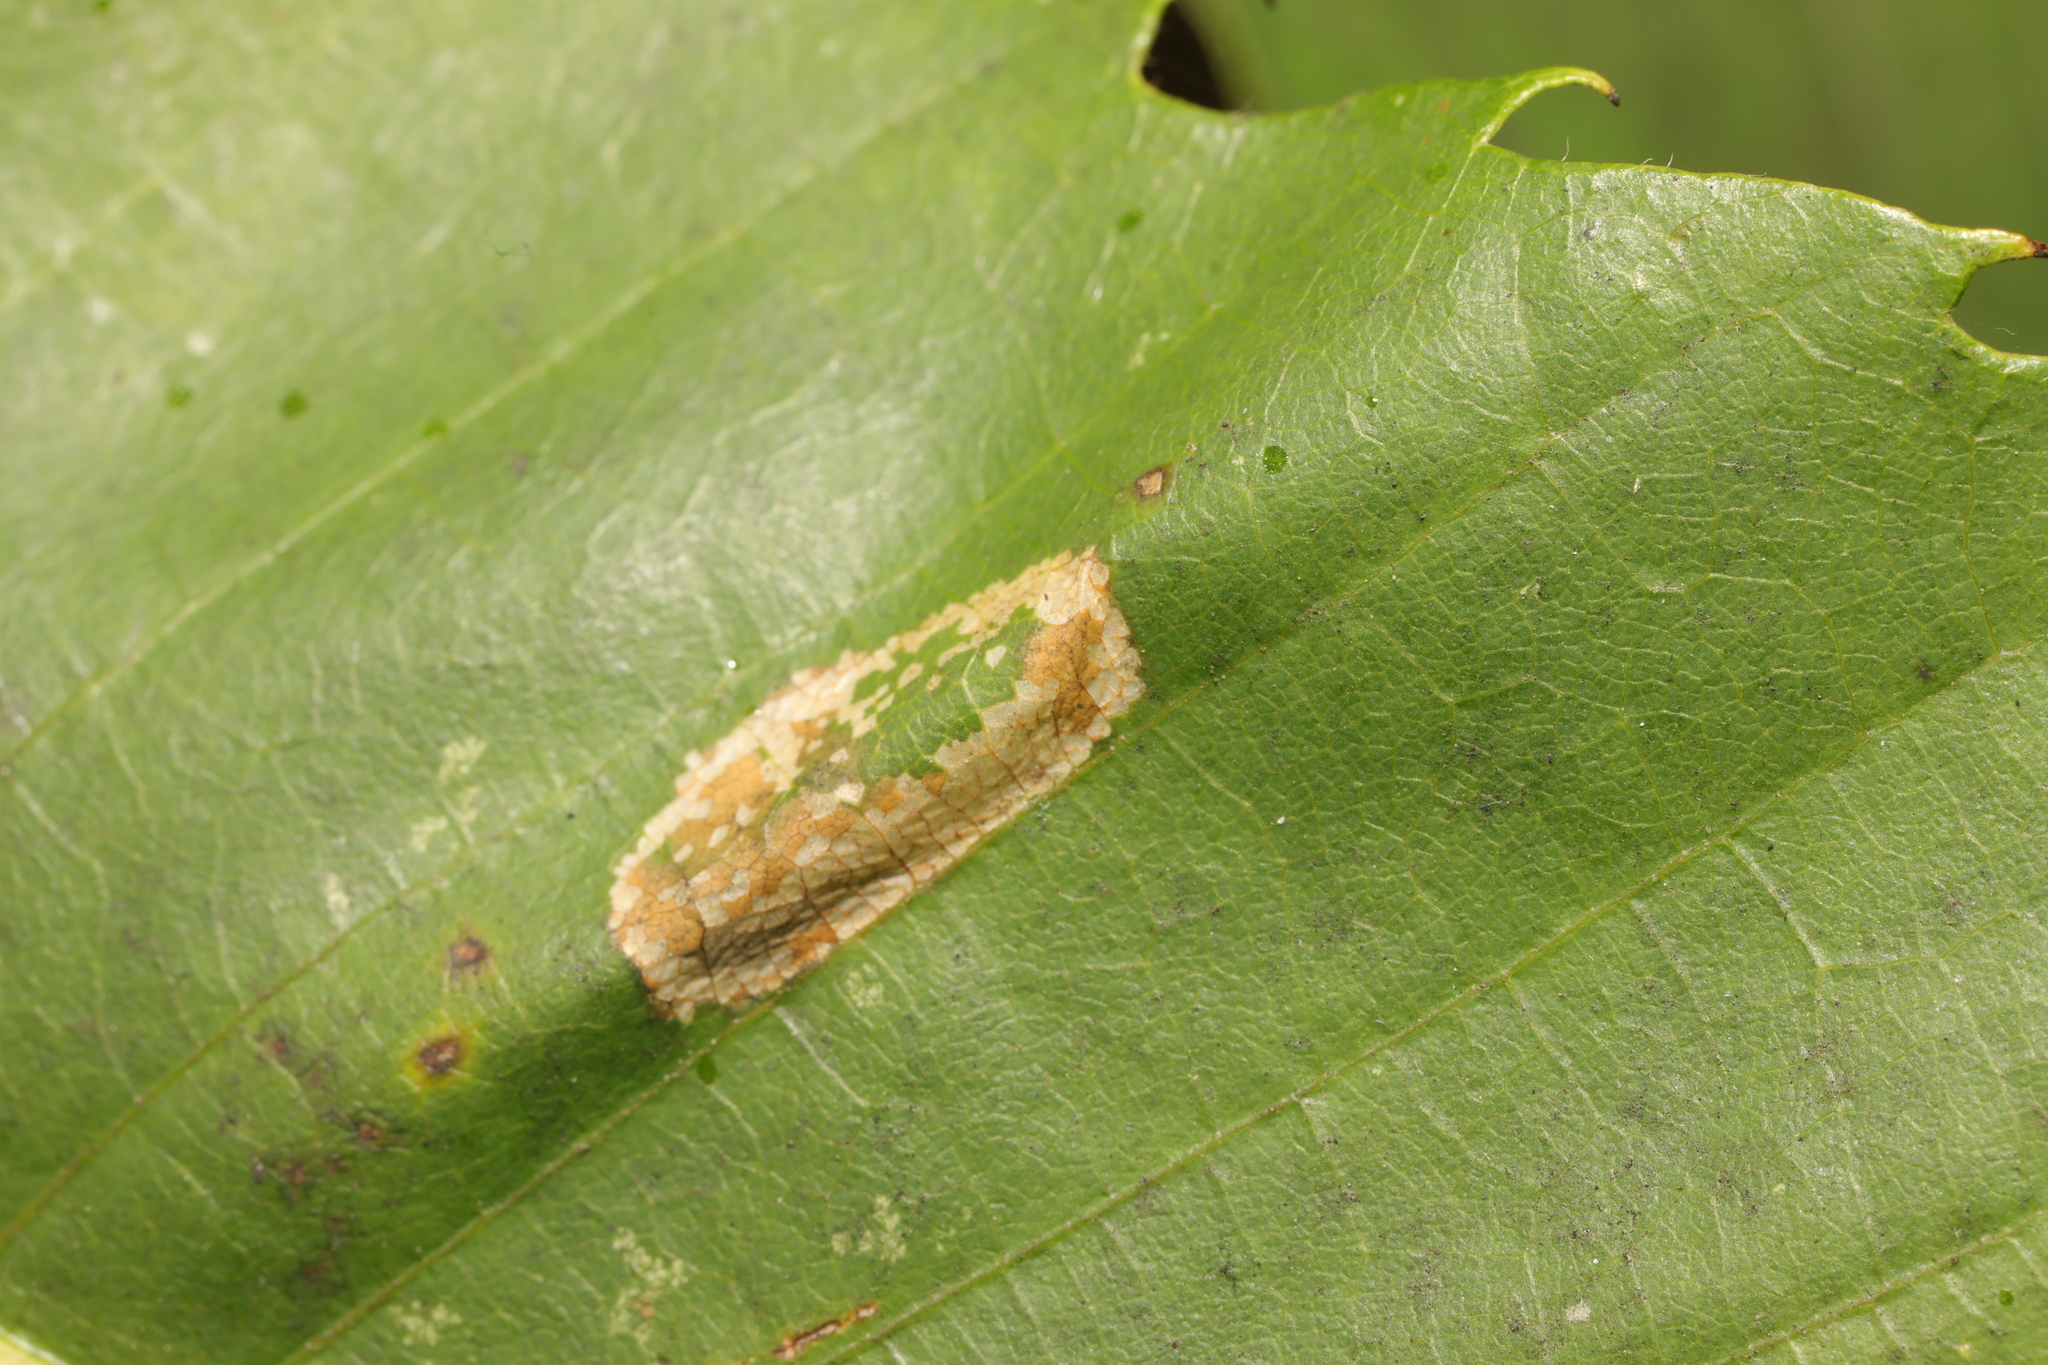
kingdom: Animalia
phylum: Arthropoda
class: Insecta
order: Lepidoptera
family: Gracillariidae
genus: Phyllonorycter
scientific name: Phyllonorycter platani
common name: London midget
